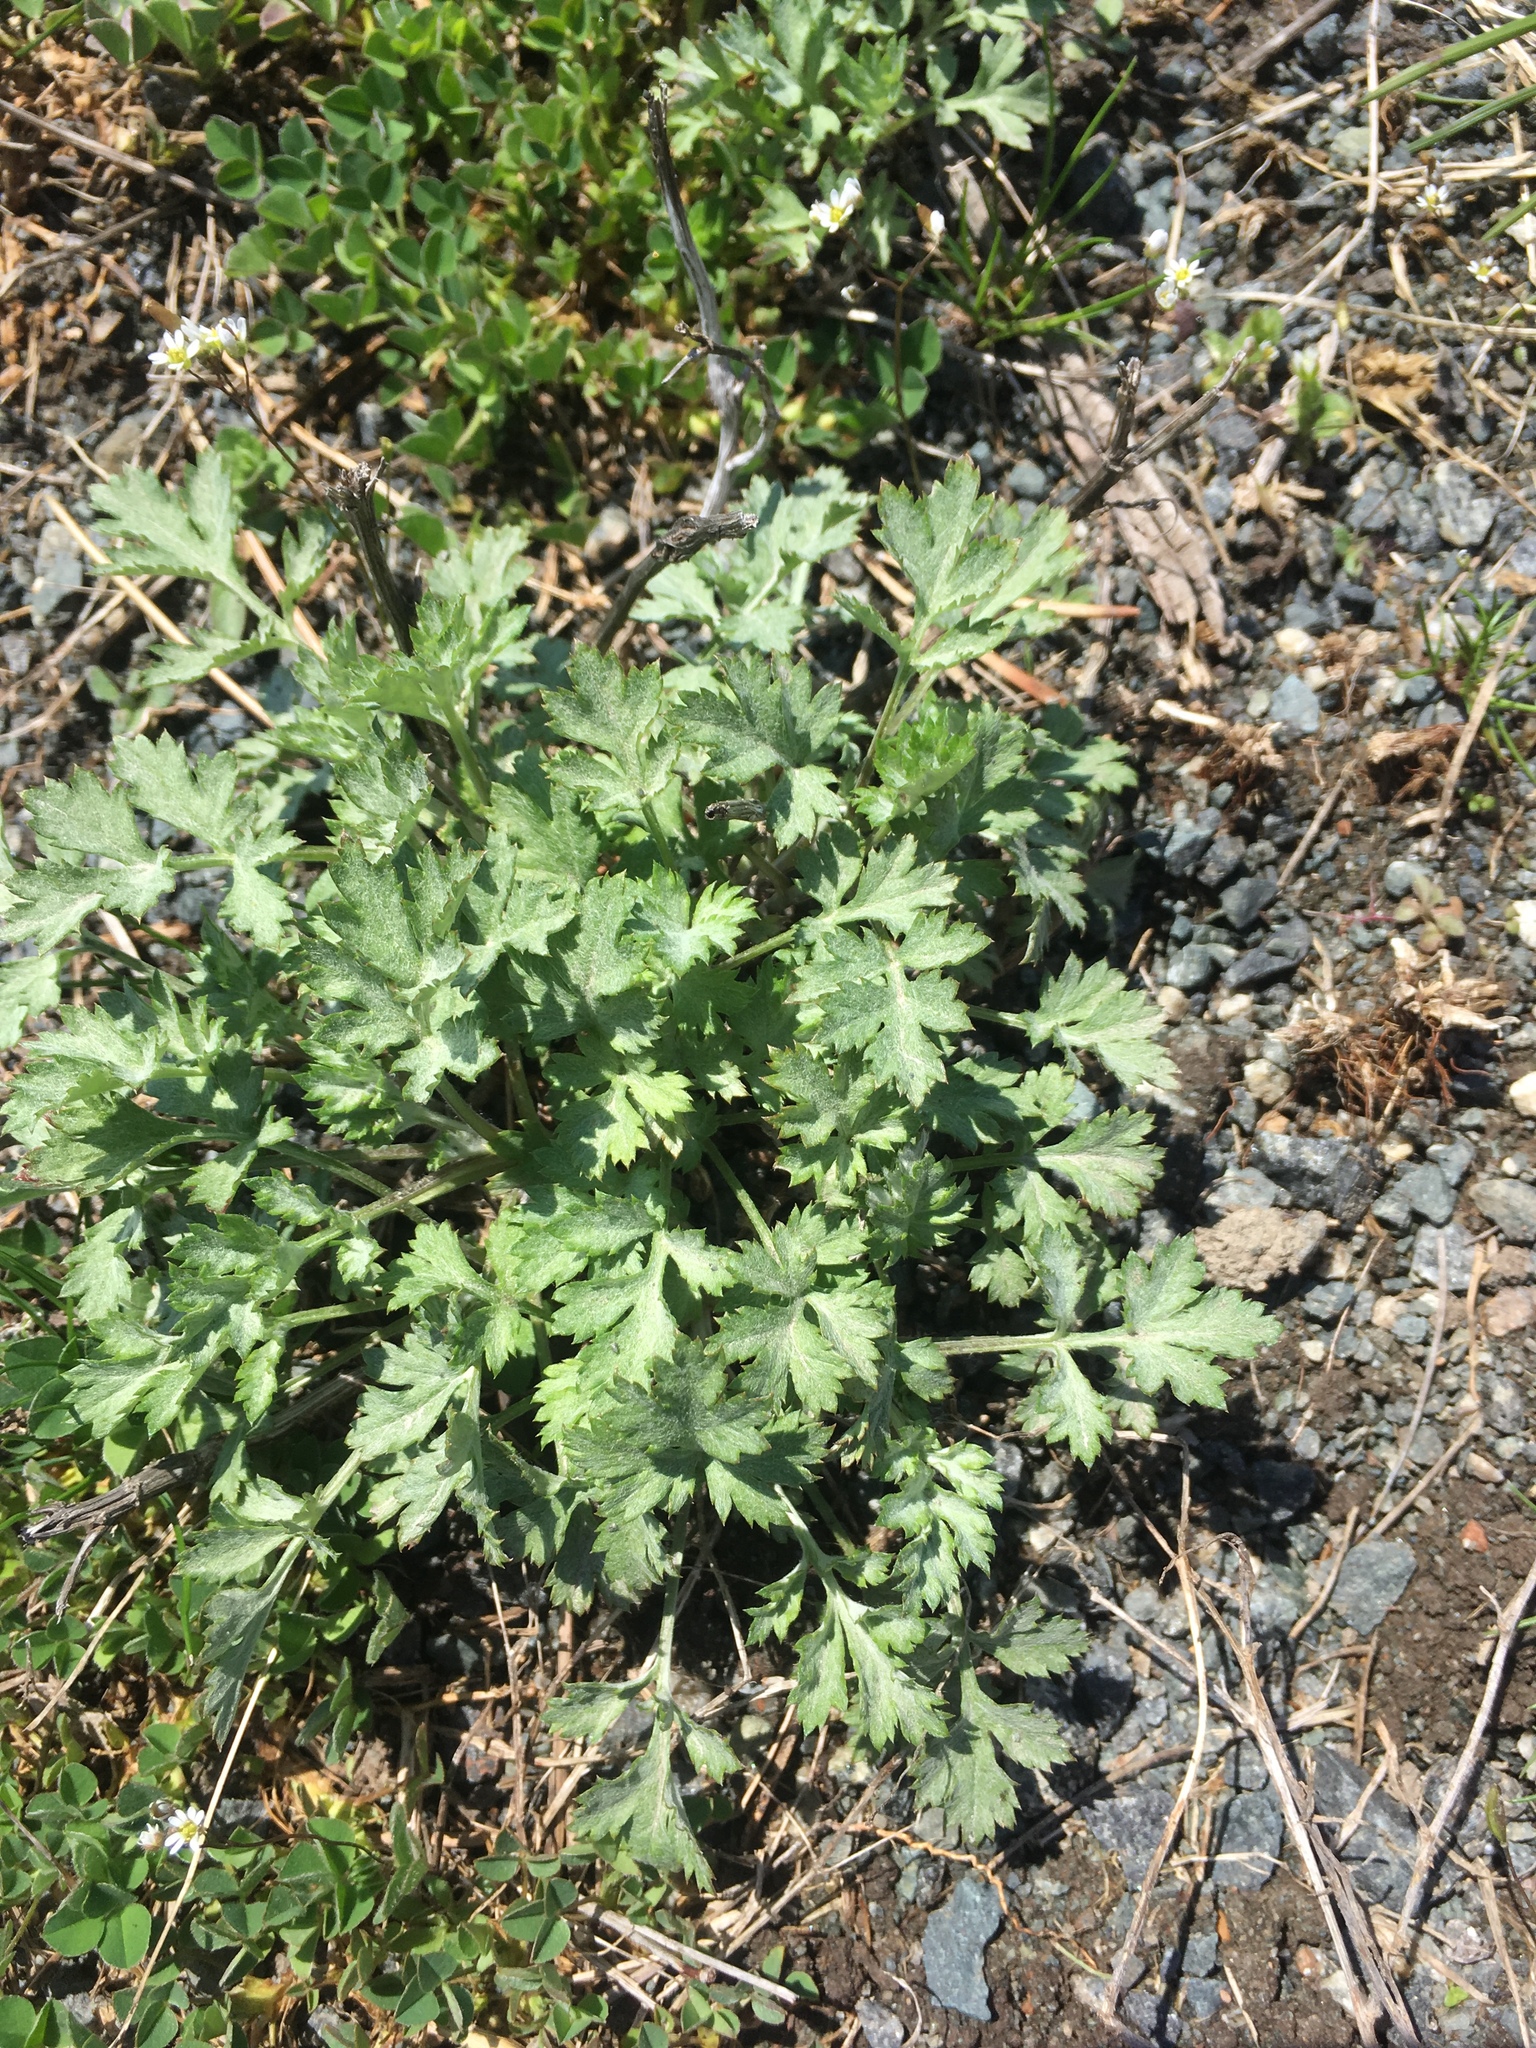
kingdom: Plantae
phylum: Tracheophyta
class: Magnoliopsida
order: Asterales
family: Asteraceae
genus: Artemisia
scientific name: Artemisia vulgaris
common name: Mugwort
